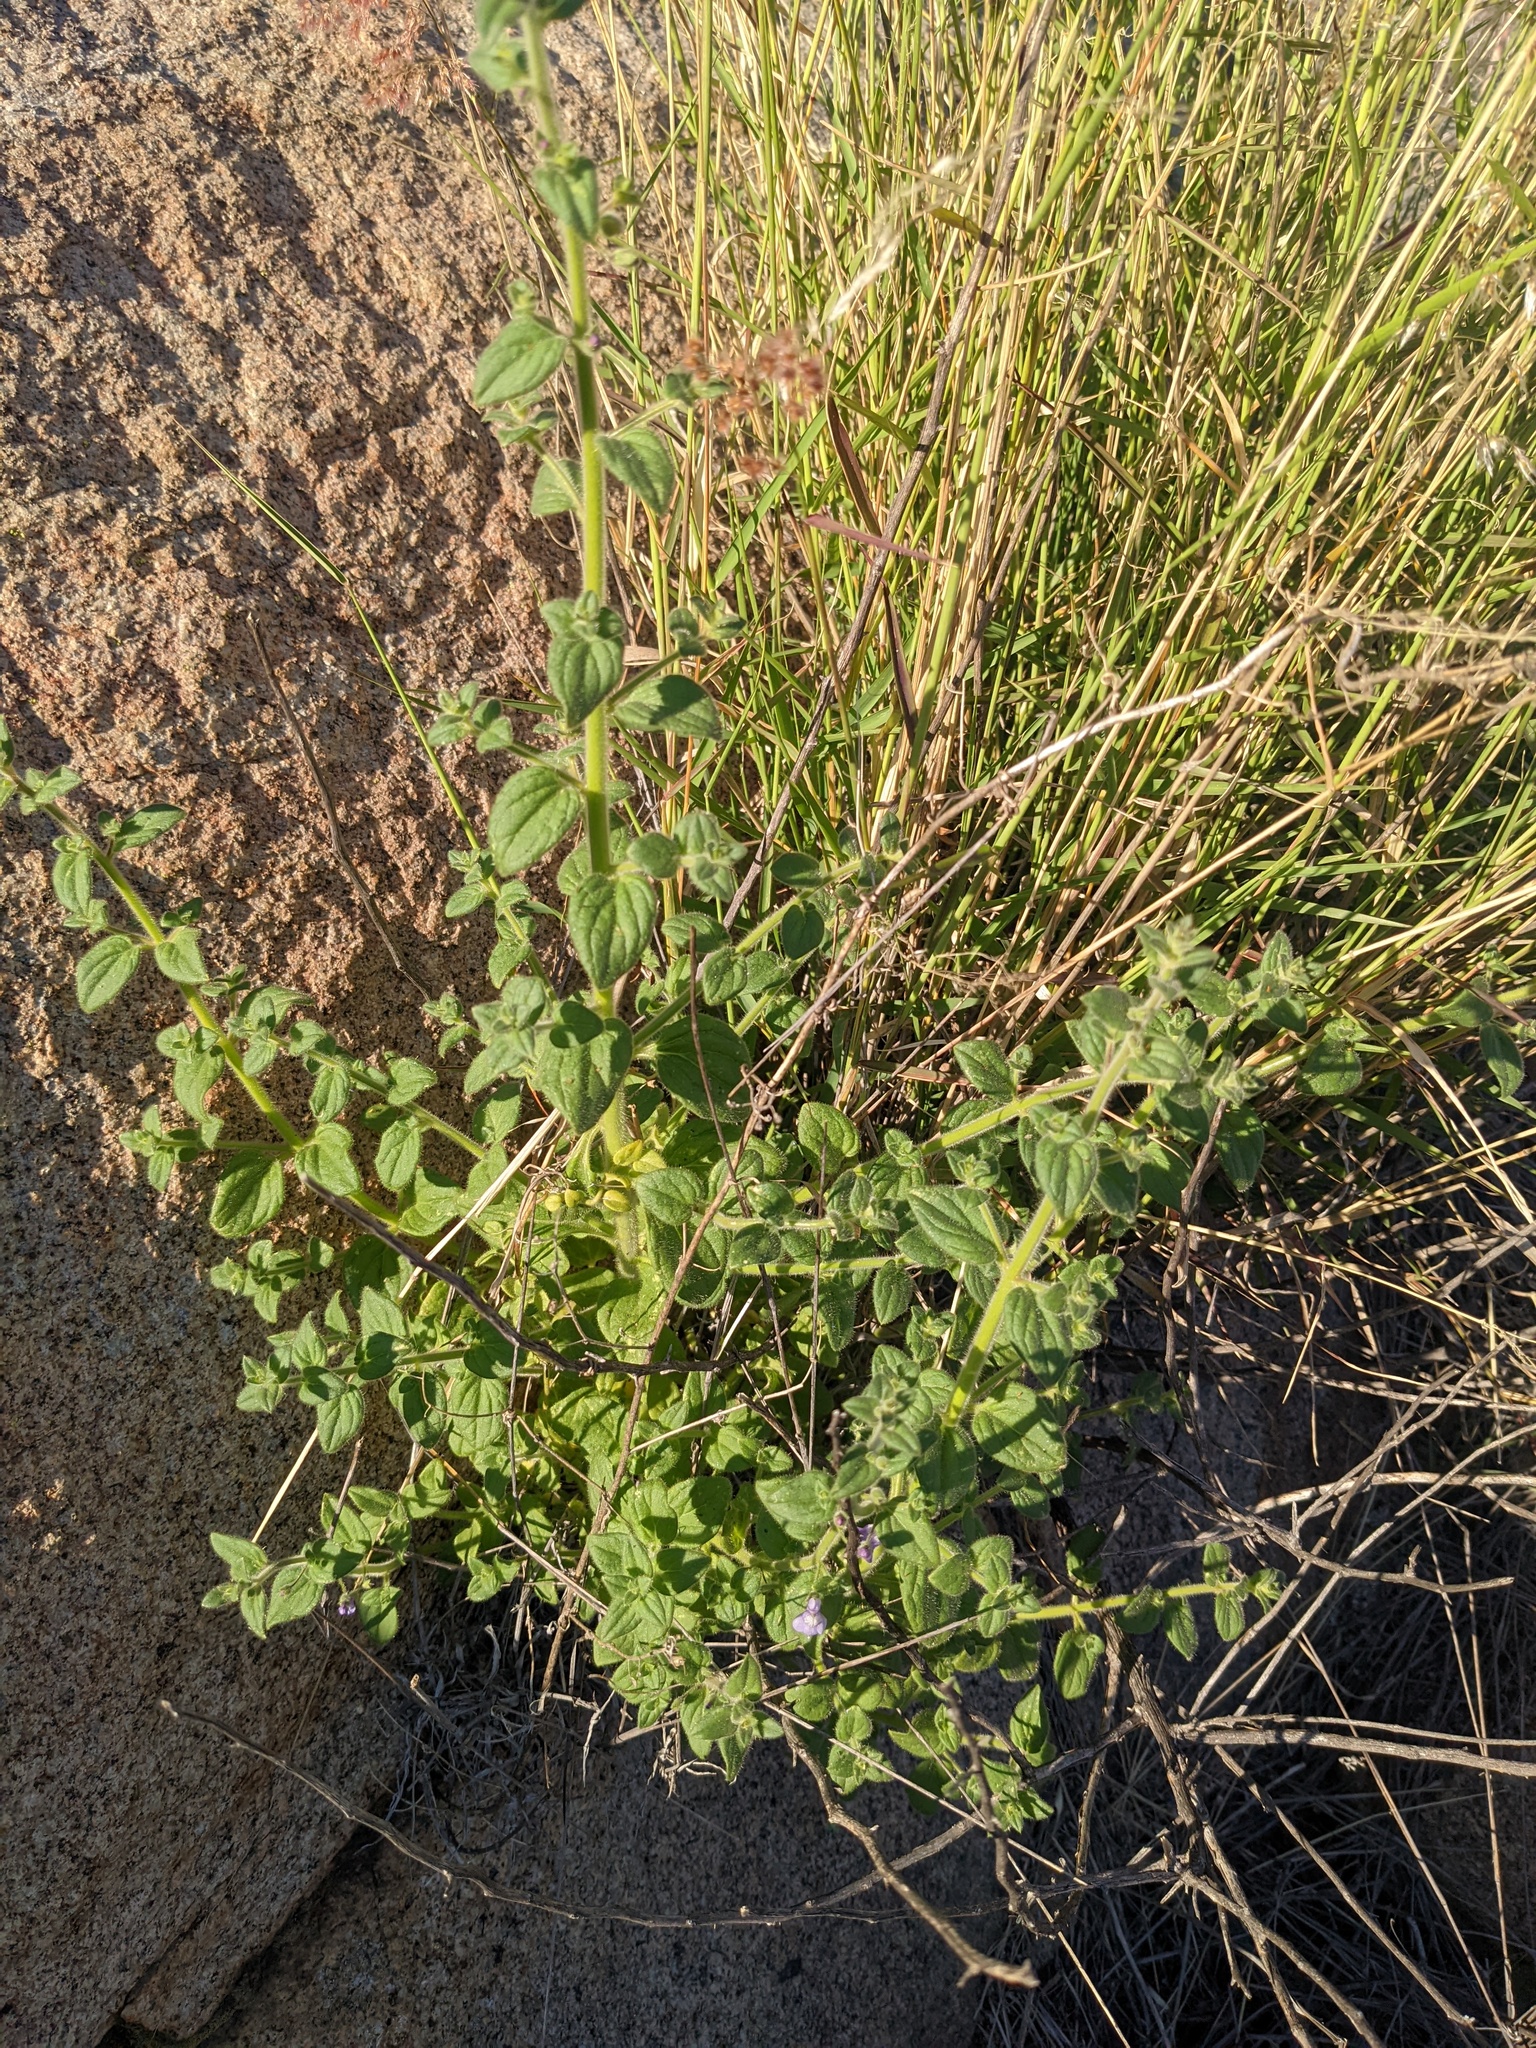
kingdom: Plantae
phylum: Tracheophyta
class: Magnoliopsida
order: Lamiales
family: Plantaginaceae
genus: Sairocarpus
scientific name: Sairocarpus nuttallianus
